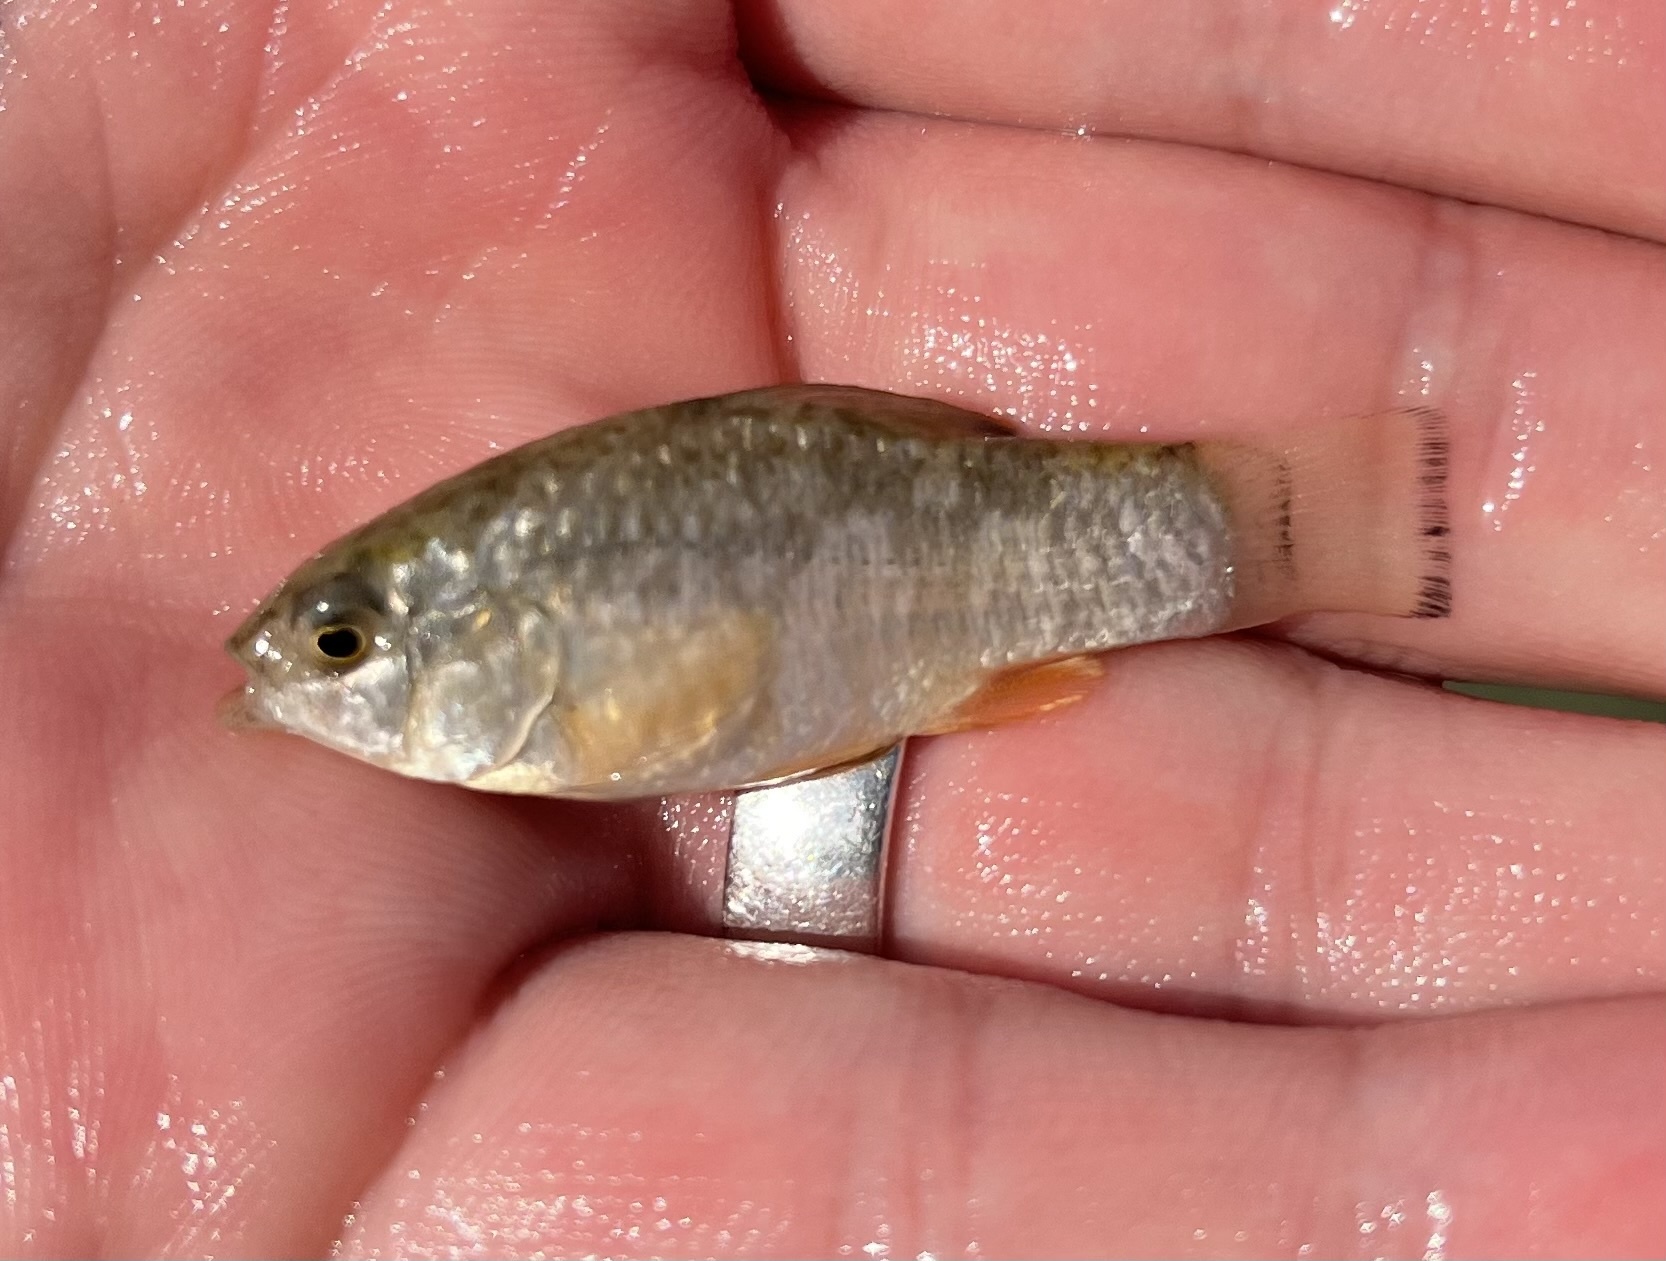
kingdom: Animalia
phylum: Chordata
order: Cyprinodontiformes
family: Cyprinodontidae
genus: Cyprinodon
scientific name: Cyprinodon variegatus
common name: Sheepshead minnow
